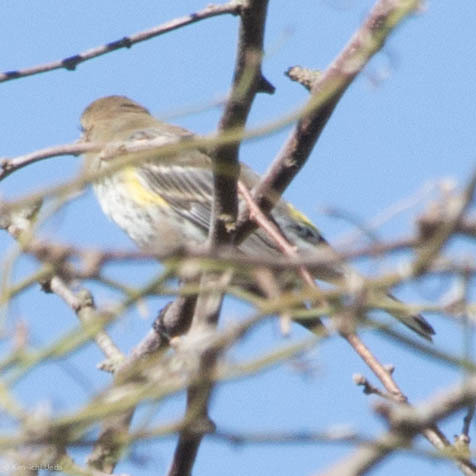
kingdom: Animalia
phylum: Chordata
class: Aves
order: Passeriformes
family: Parulidae
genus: Setophaga
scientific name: Setophaga coronata
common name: Myrtle warbler
